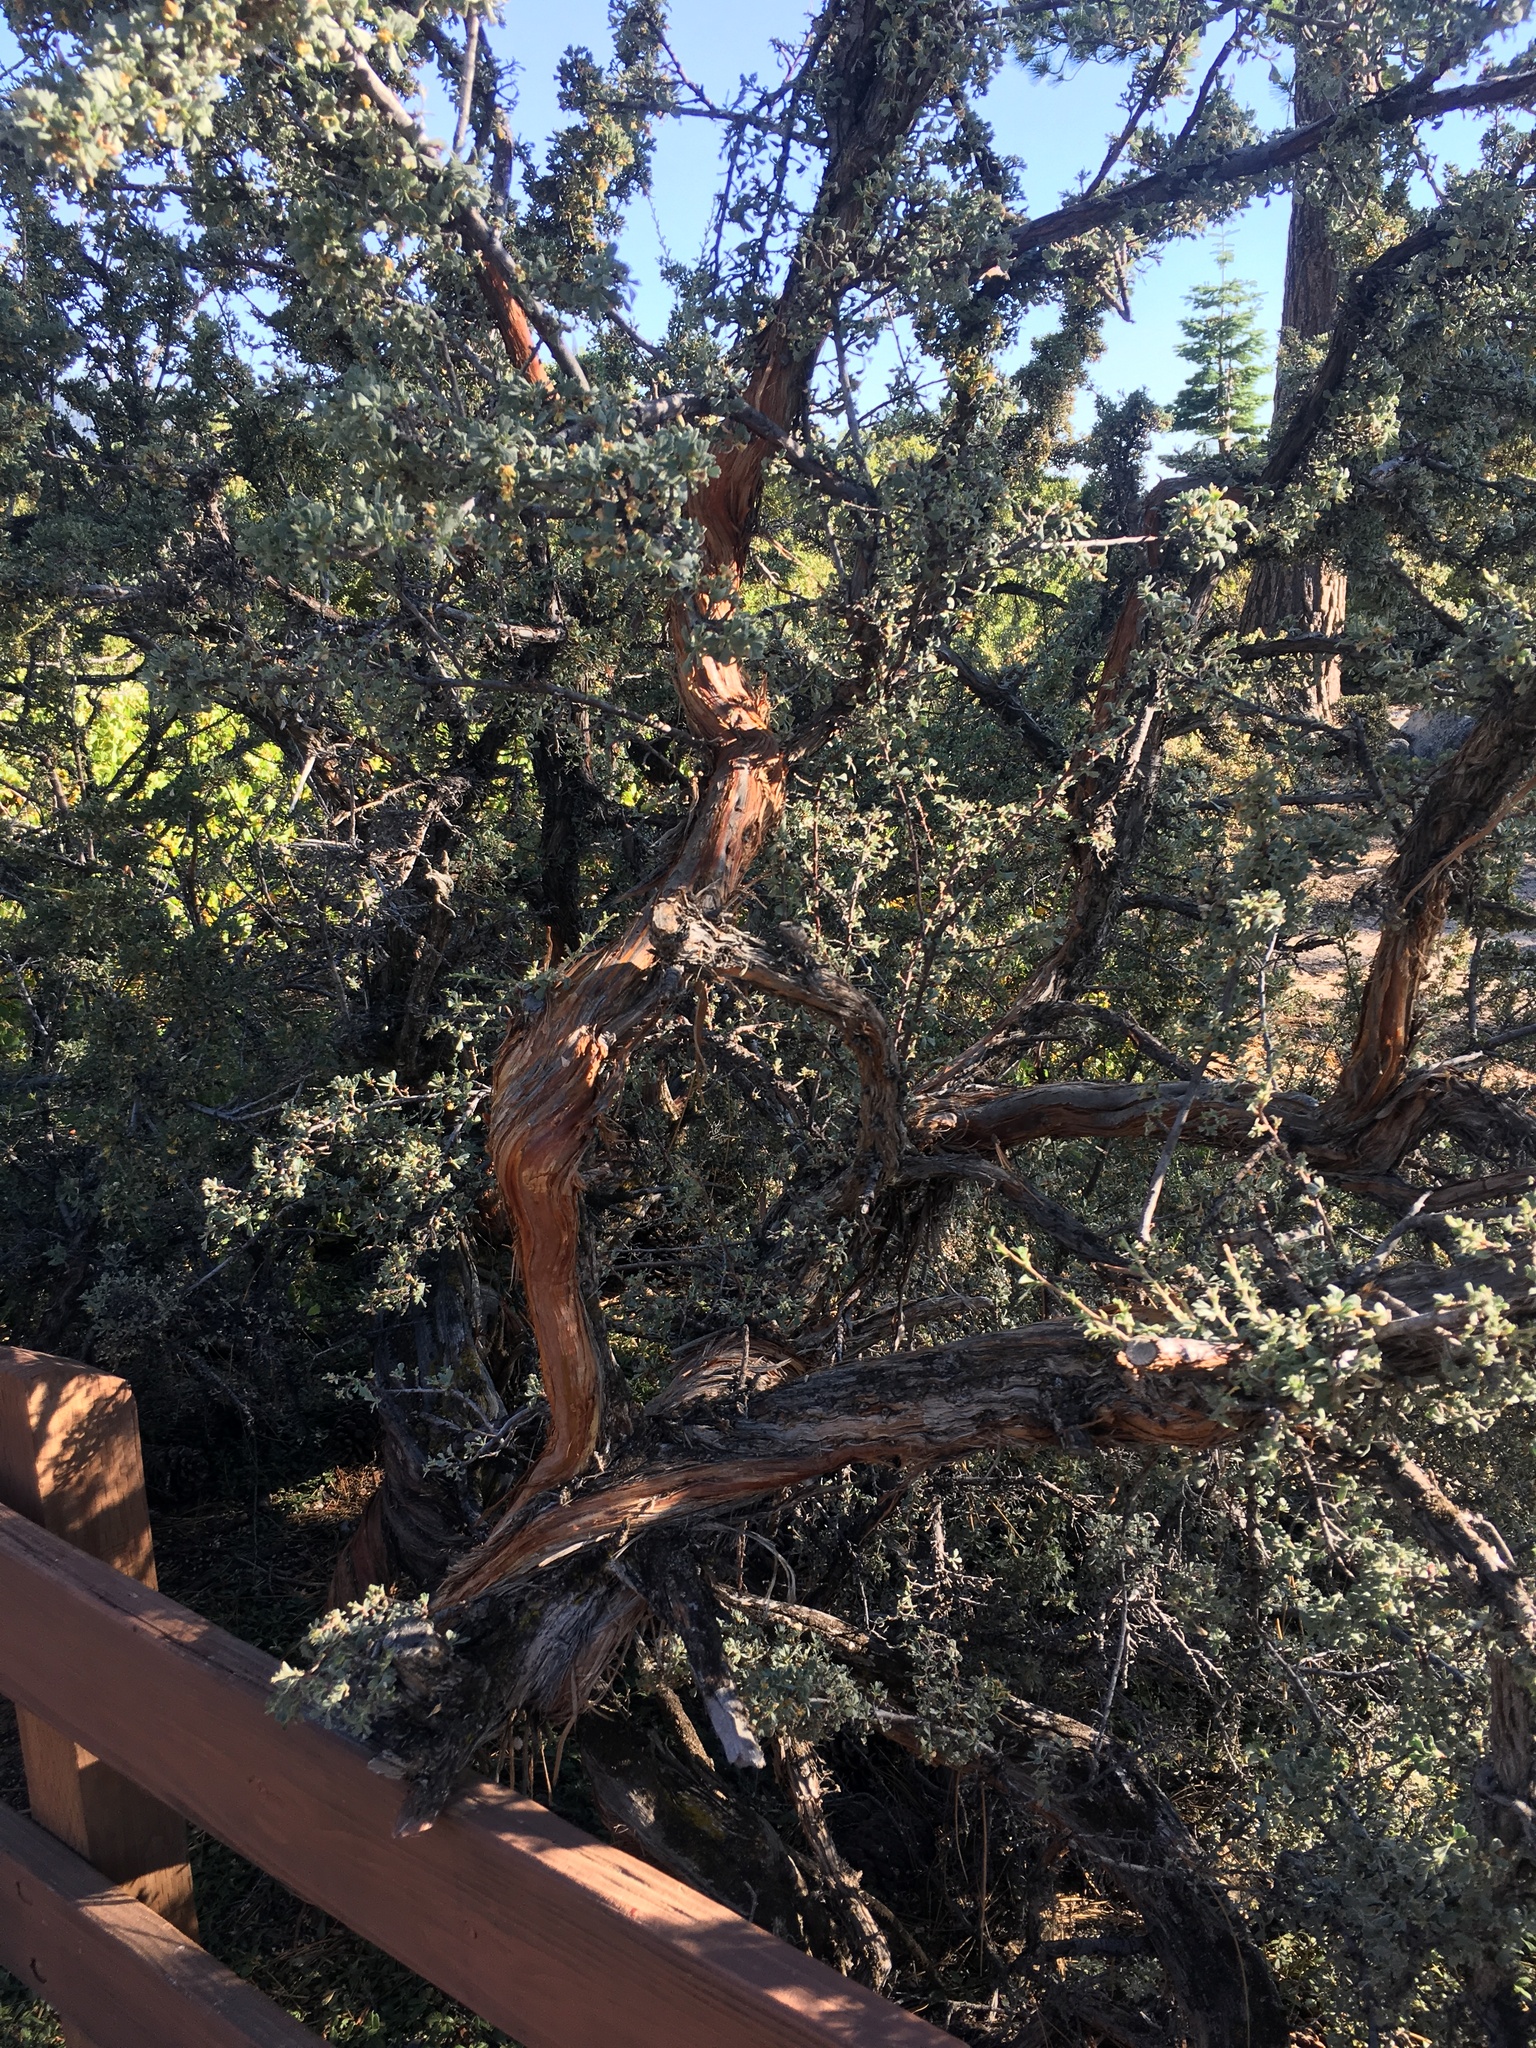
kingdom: Plantae
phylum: Tracheophyta
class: Magnoliopsida
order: Rosales
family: Rosaceae
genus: Purshia
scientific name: Purshia tridentata
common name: Antelope bitterbrush
